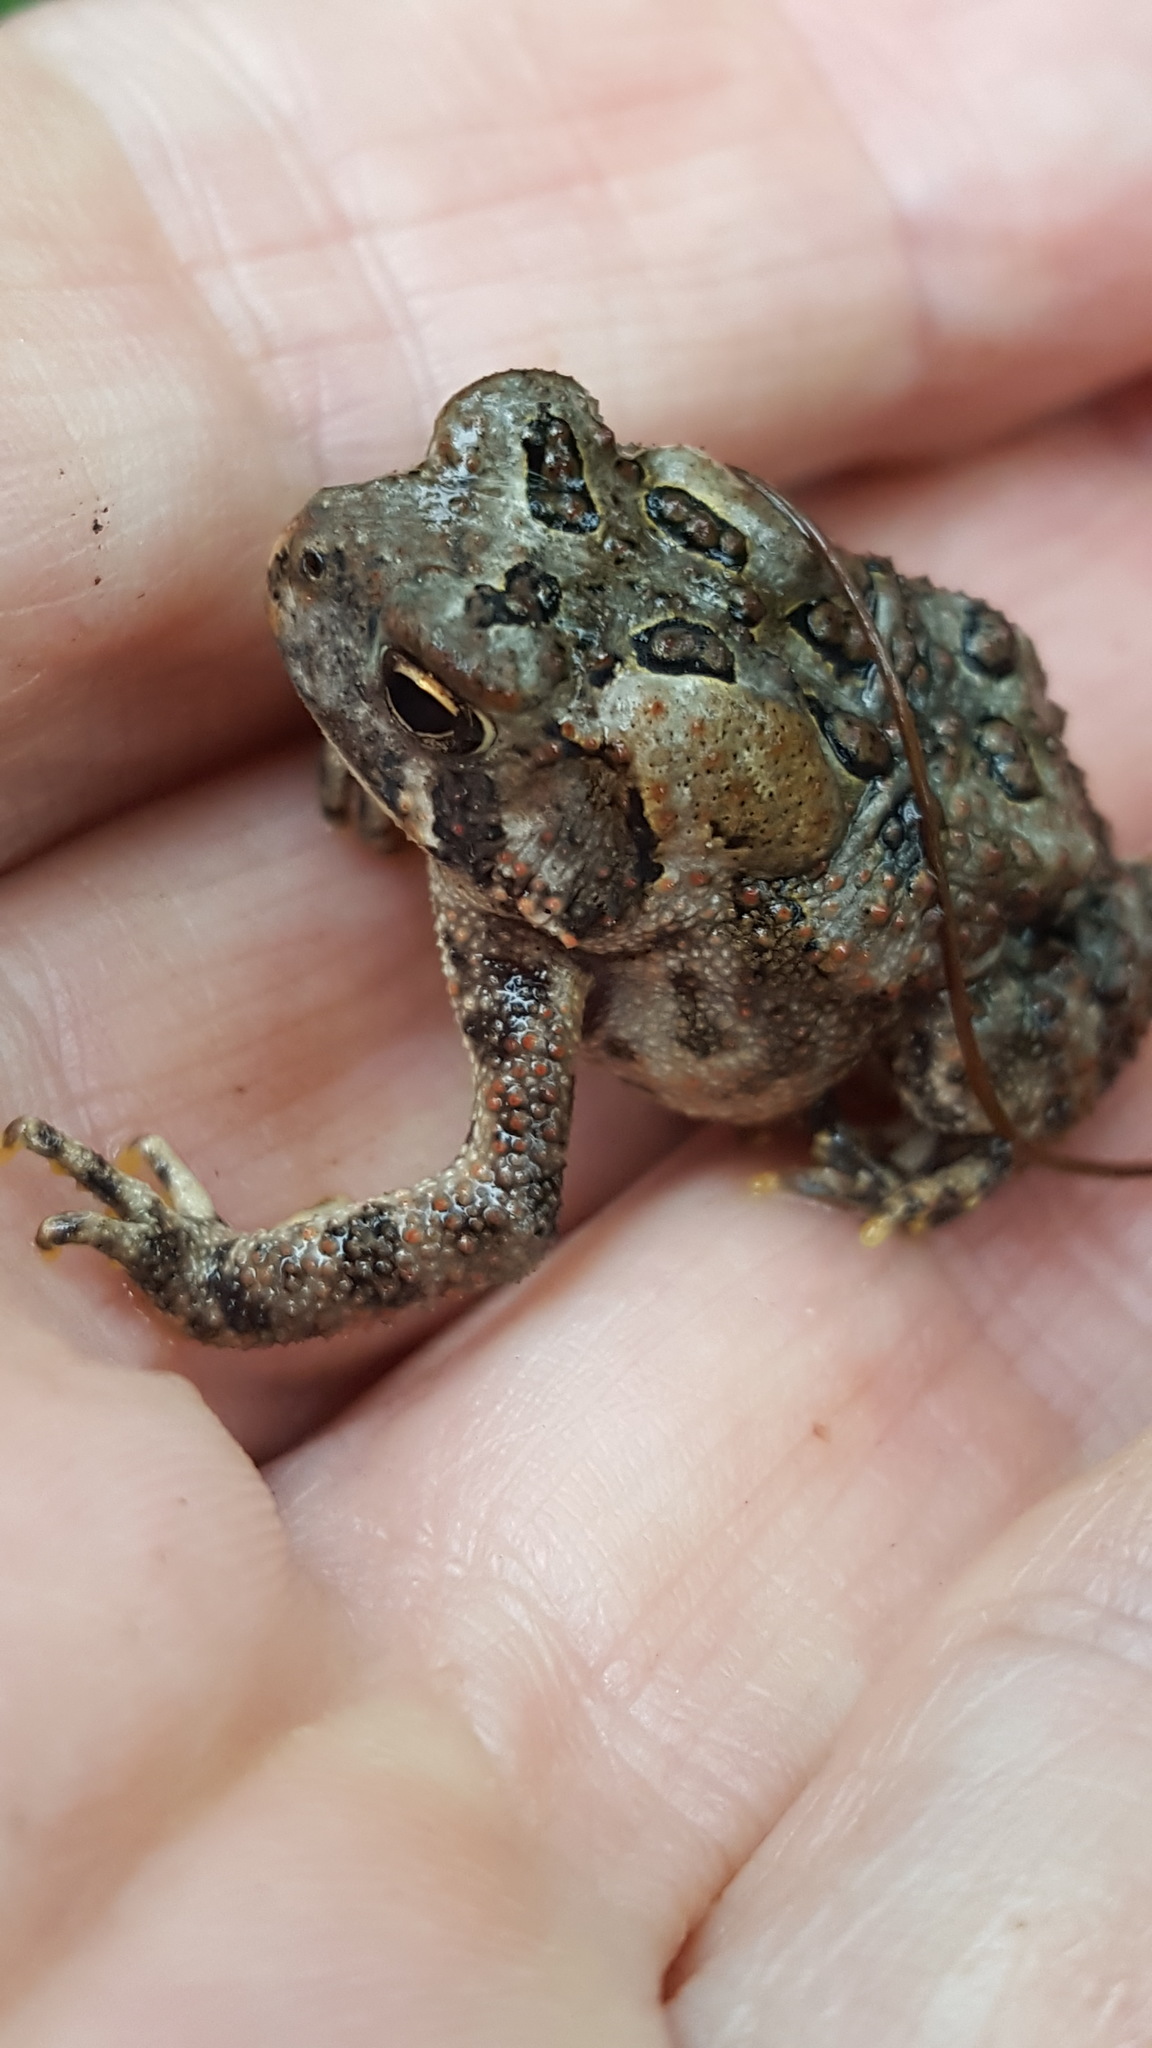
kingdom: Animalia
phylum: Chordata
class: Amphibia
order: Anura
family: Bufonidae
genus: Anaxyrus
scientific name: Anaxyrus americanus
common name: American toad
